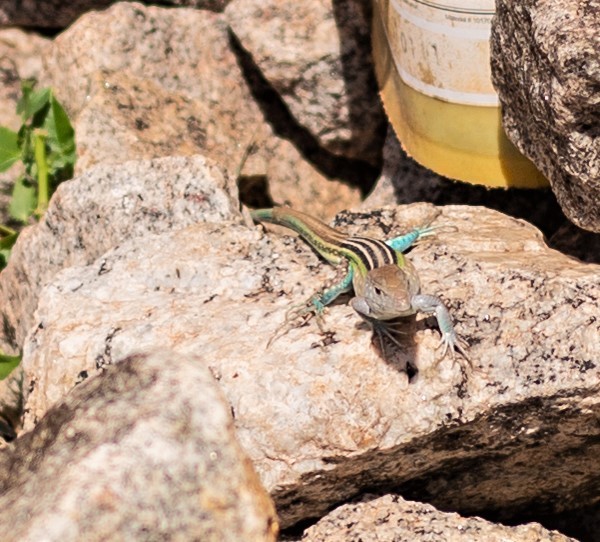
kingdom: Animalia
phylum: Chordata
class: Squamata
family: Teiidae
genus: Cnemidophorus
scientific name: Cnemidophorus lemniscatus
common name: Rainbow whiptail
